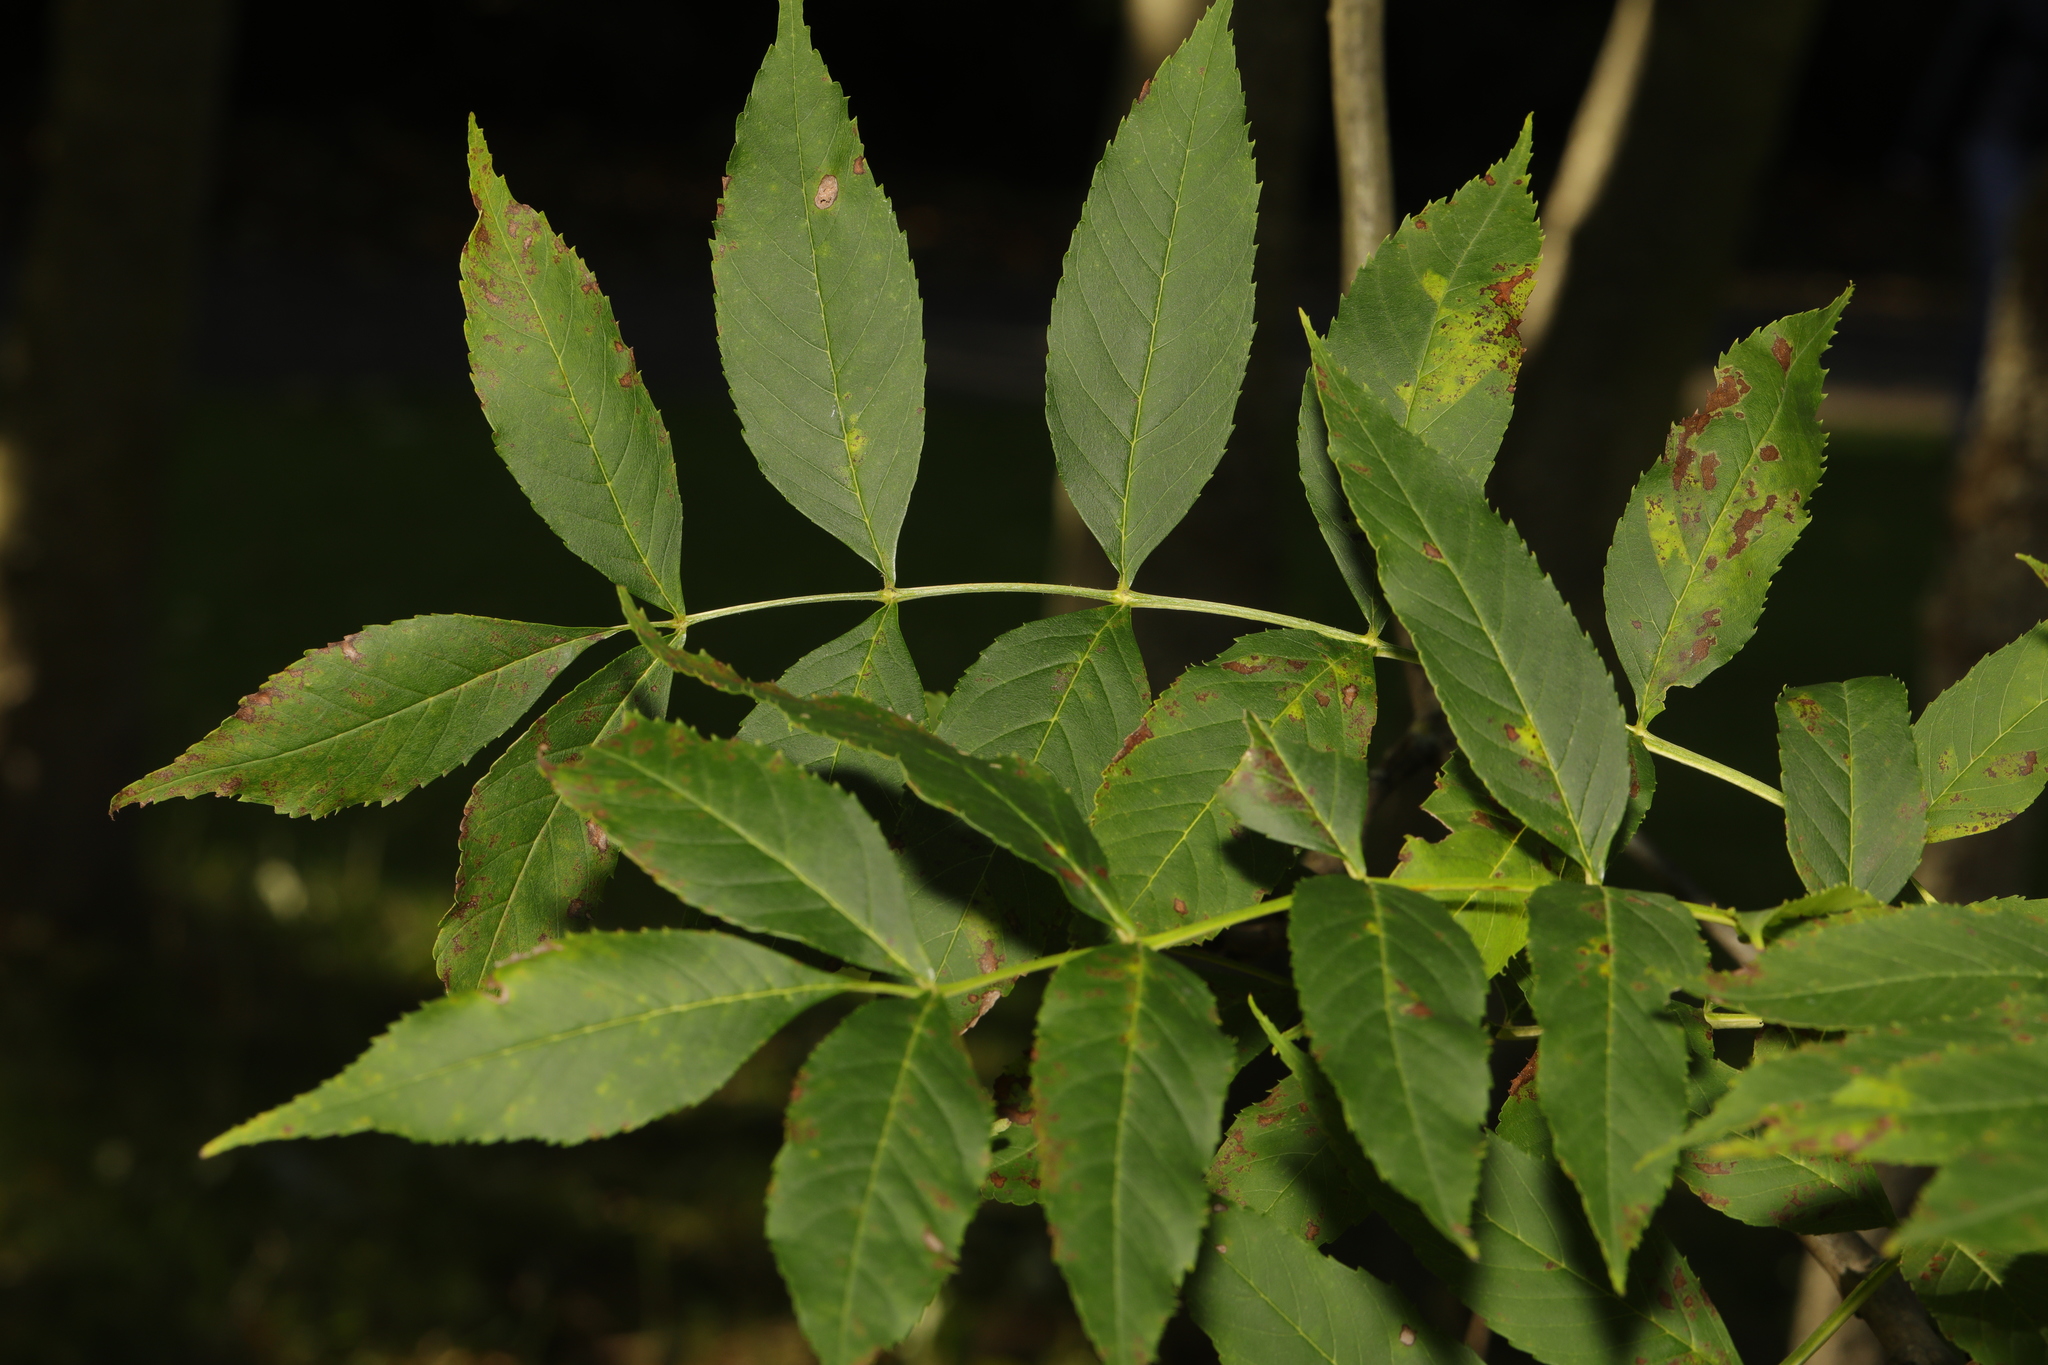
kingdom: Plantae
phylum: Tracheophyta
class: Magnoliopsida
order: Lamiales
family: Oleaceae
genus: Fraxinus
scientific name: Fraxinus excelsior
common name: European ash
